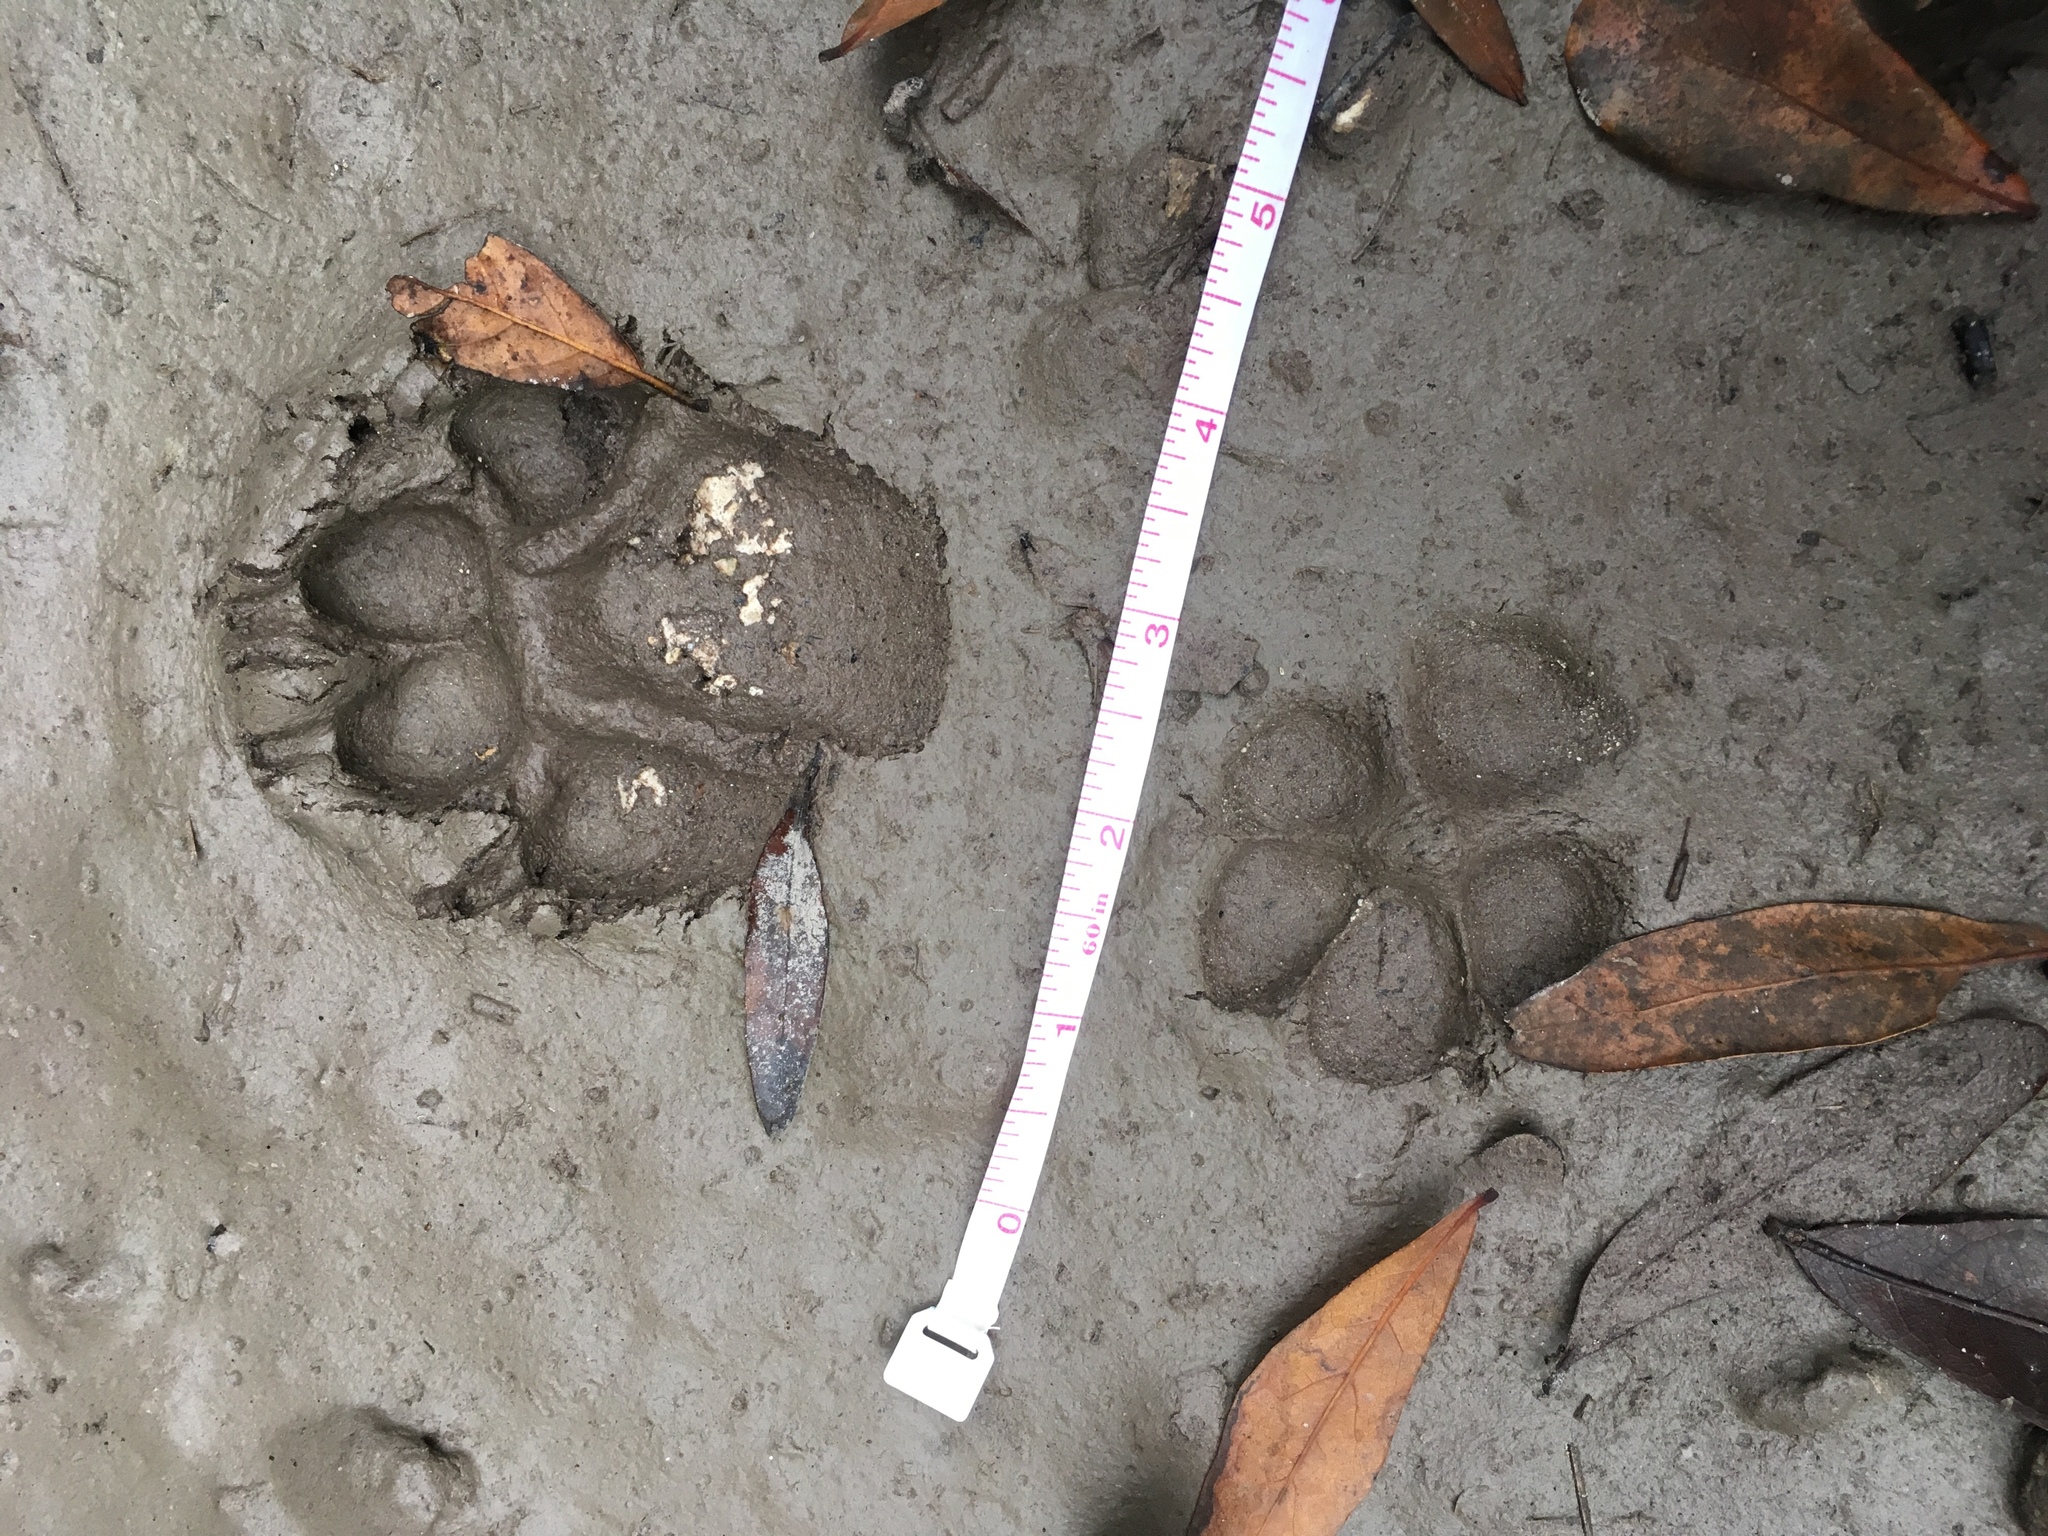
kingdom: Animalia
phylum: Chordata
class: Mammalia
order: Carnivora
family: Canidae
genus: Canis
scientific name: Canis latrans
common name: Coyote
